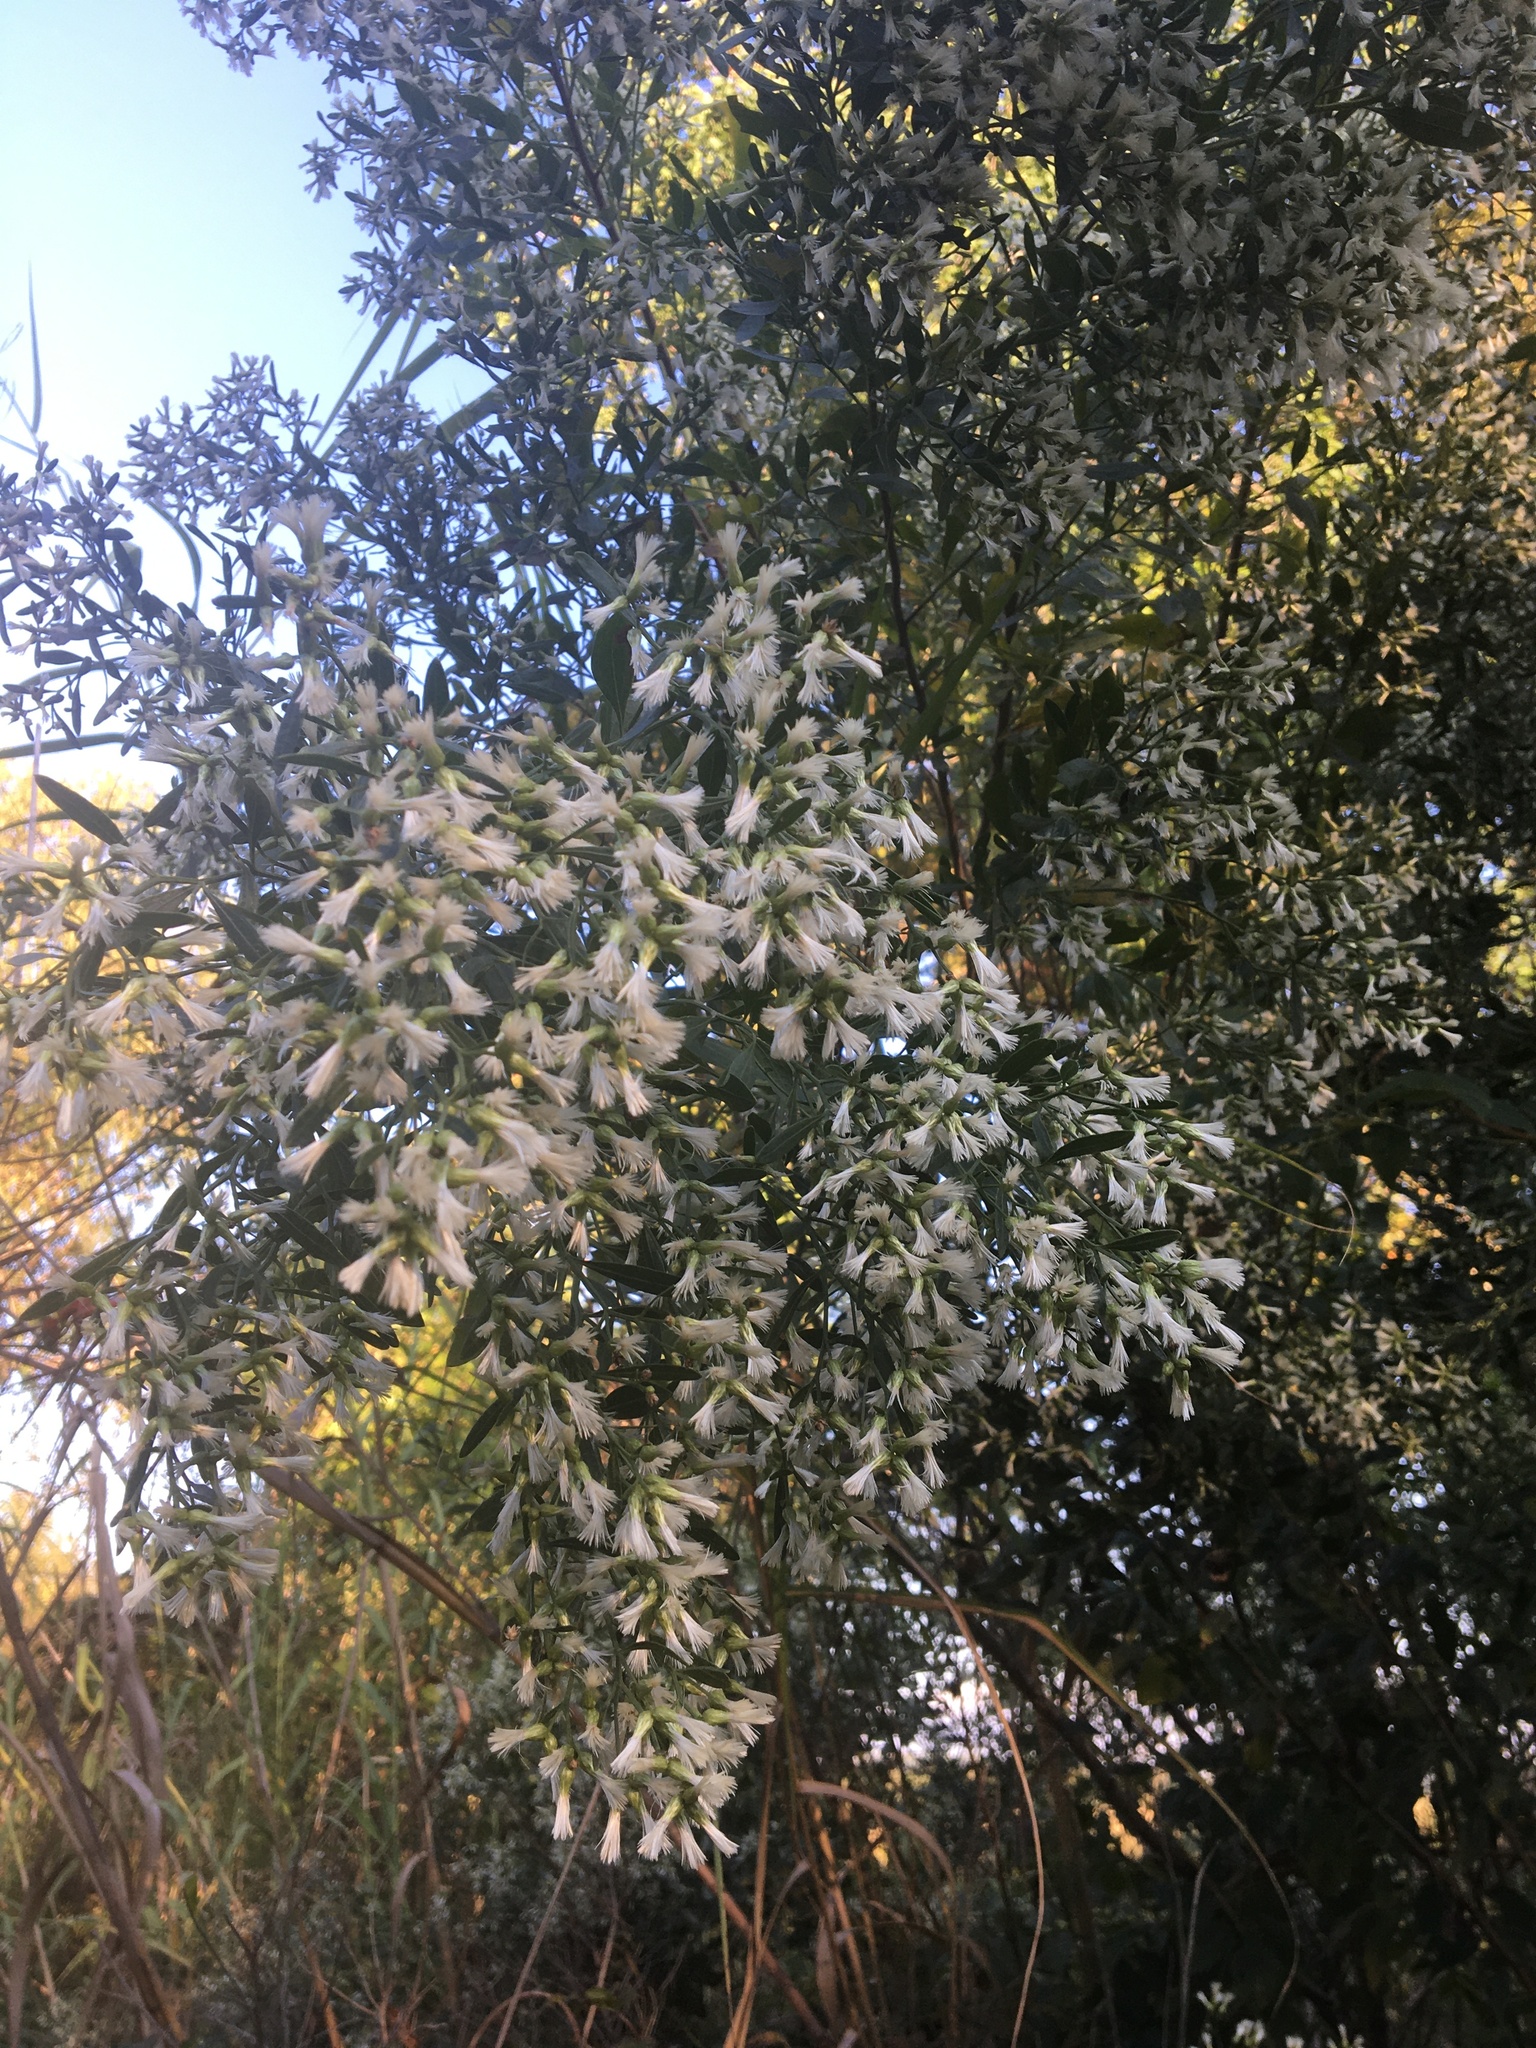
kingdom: Plantae
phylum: Tracheophyta
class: Magnoliopsida
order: Asterales
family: Asteraceae
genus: Baccharis
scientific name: Baccharis halimifolia
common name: Eastern baccharis
